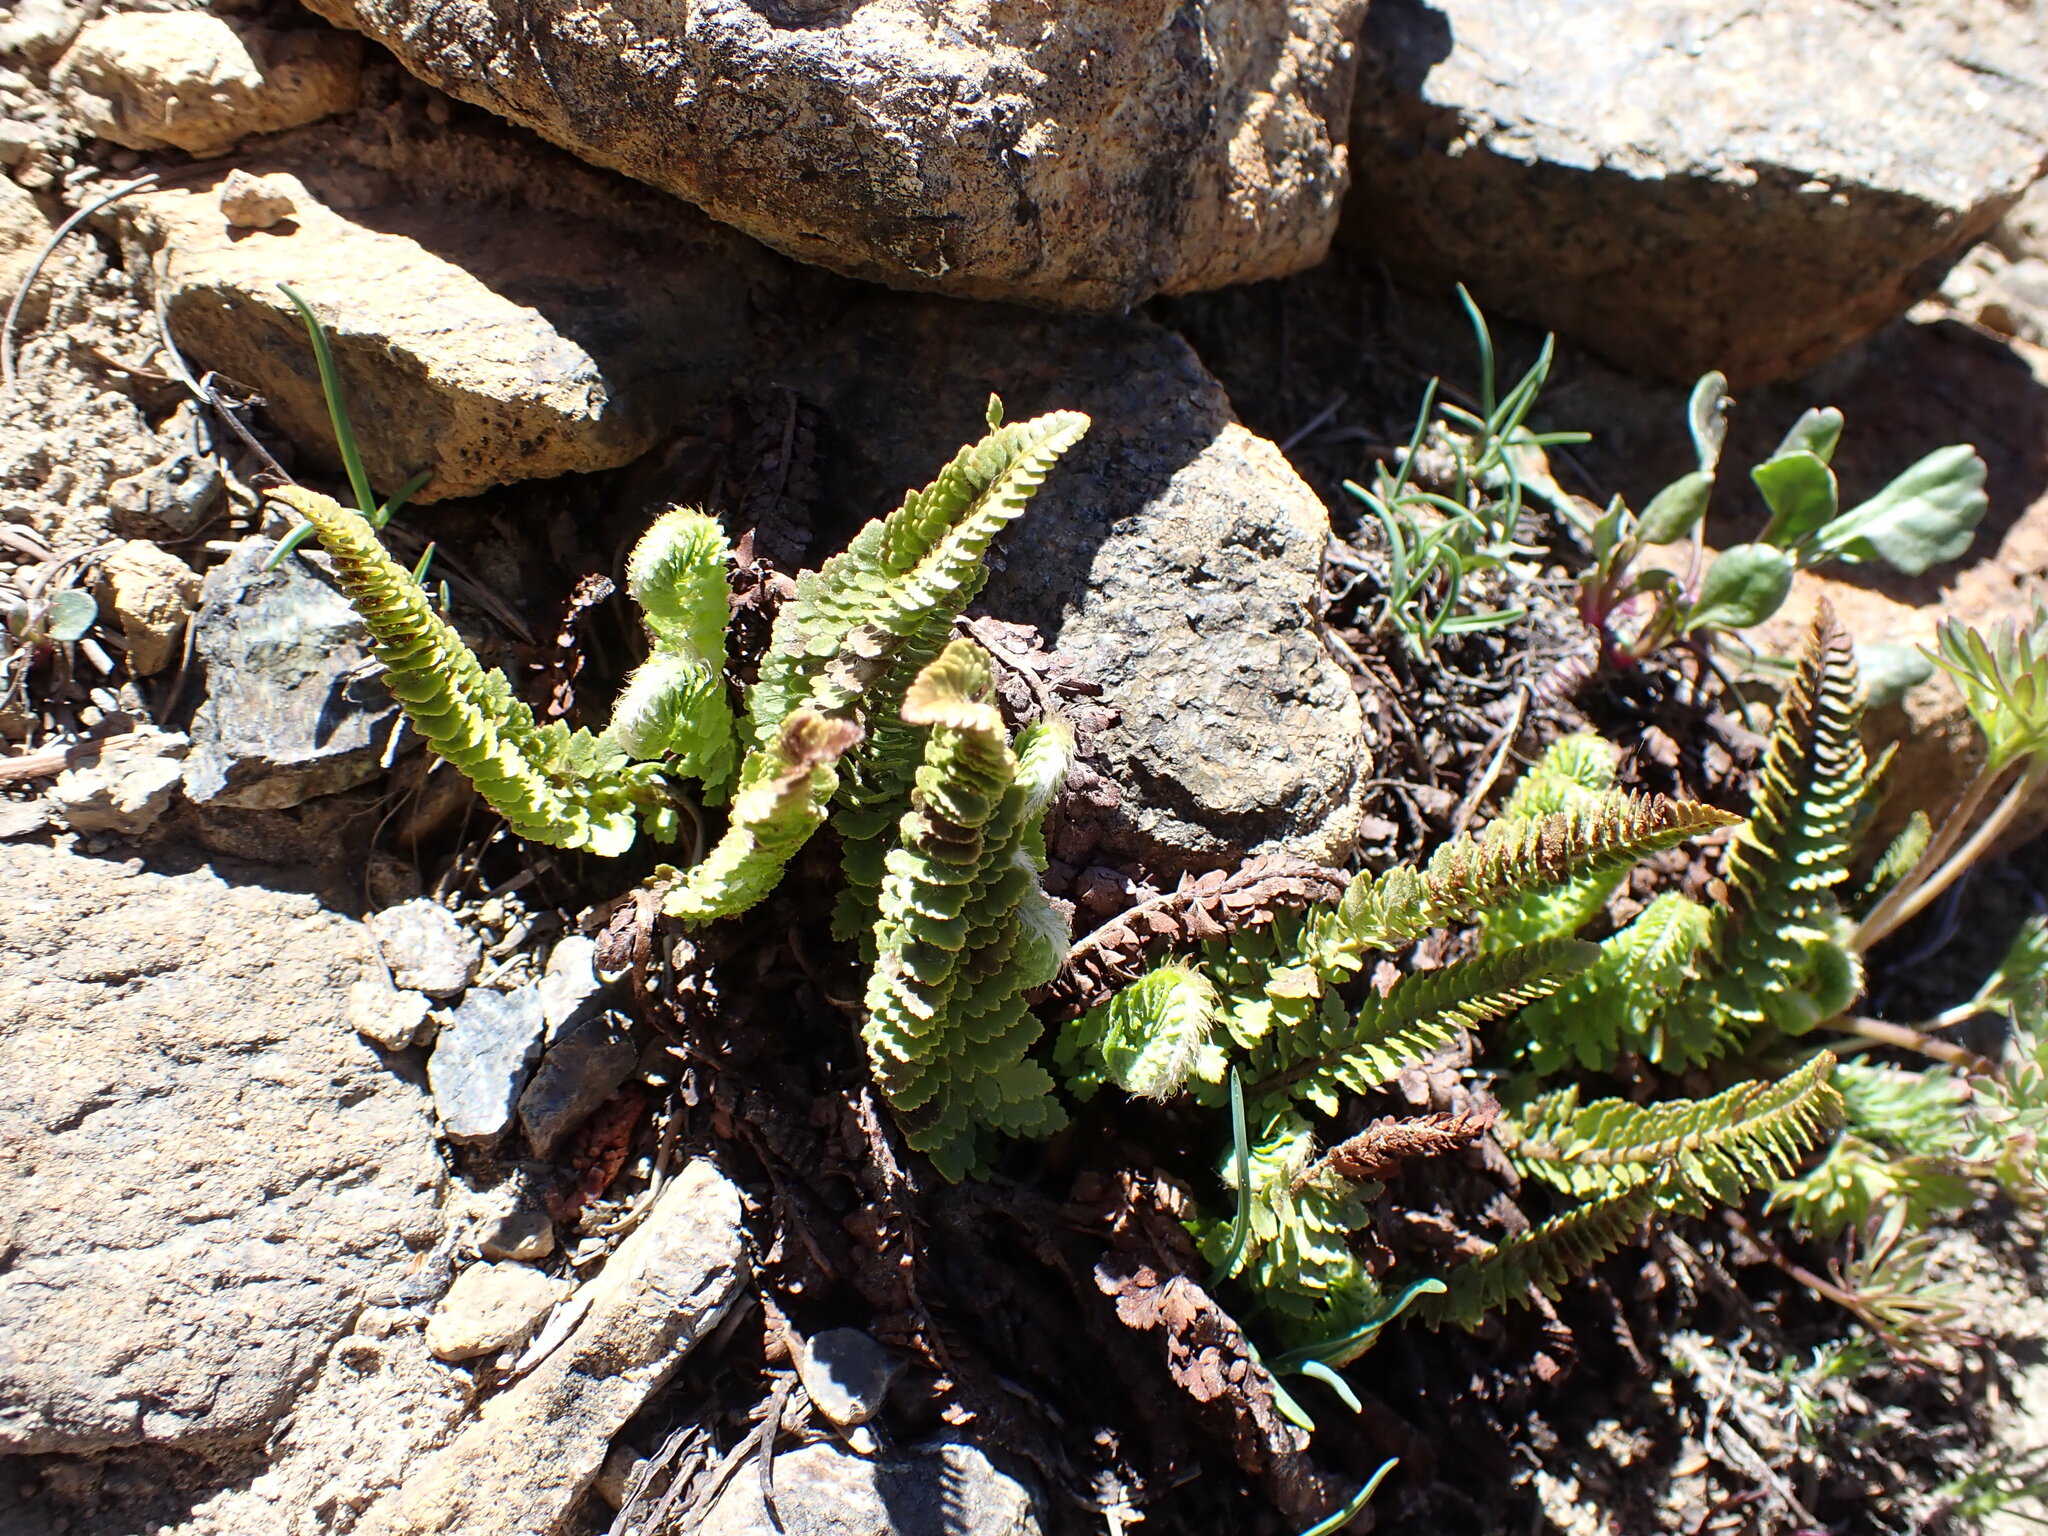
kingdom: Plantae
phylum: Tracheophyta
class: Polypodiopsida
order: Polypodiales
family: Dryopteridaceae
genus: Polystichum
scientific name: Polystichum lemmonii
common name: Lemmon's holly fern
